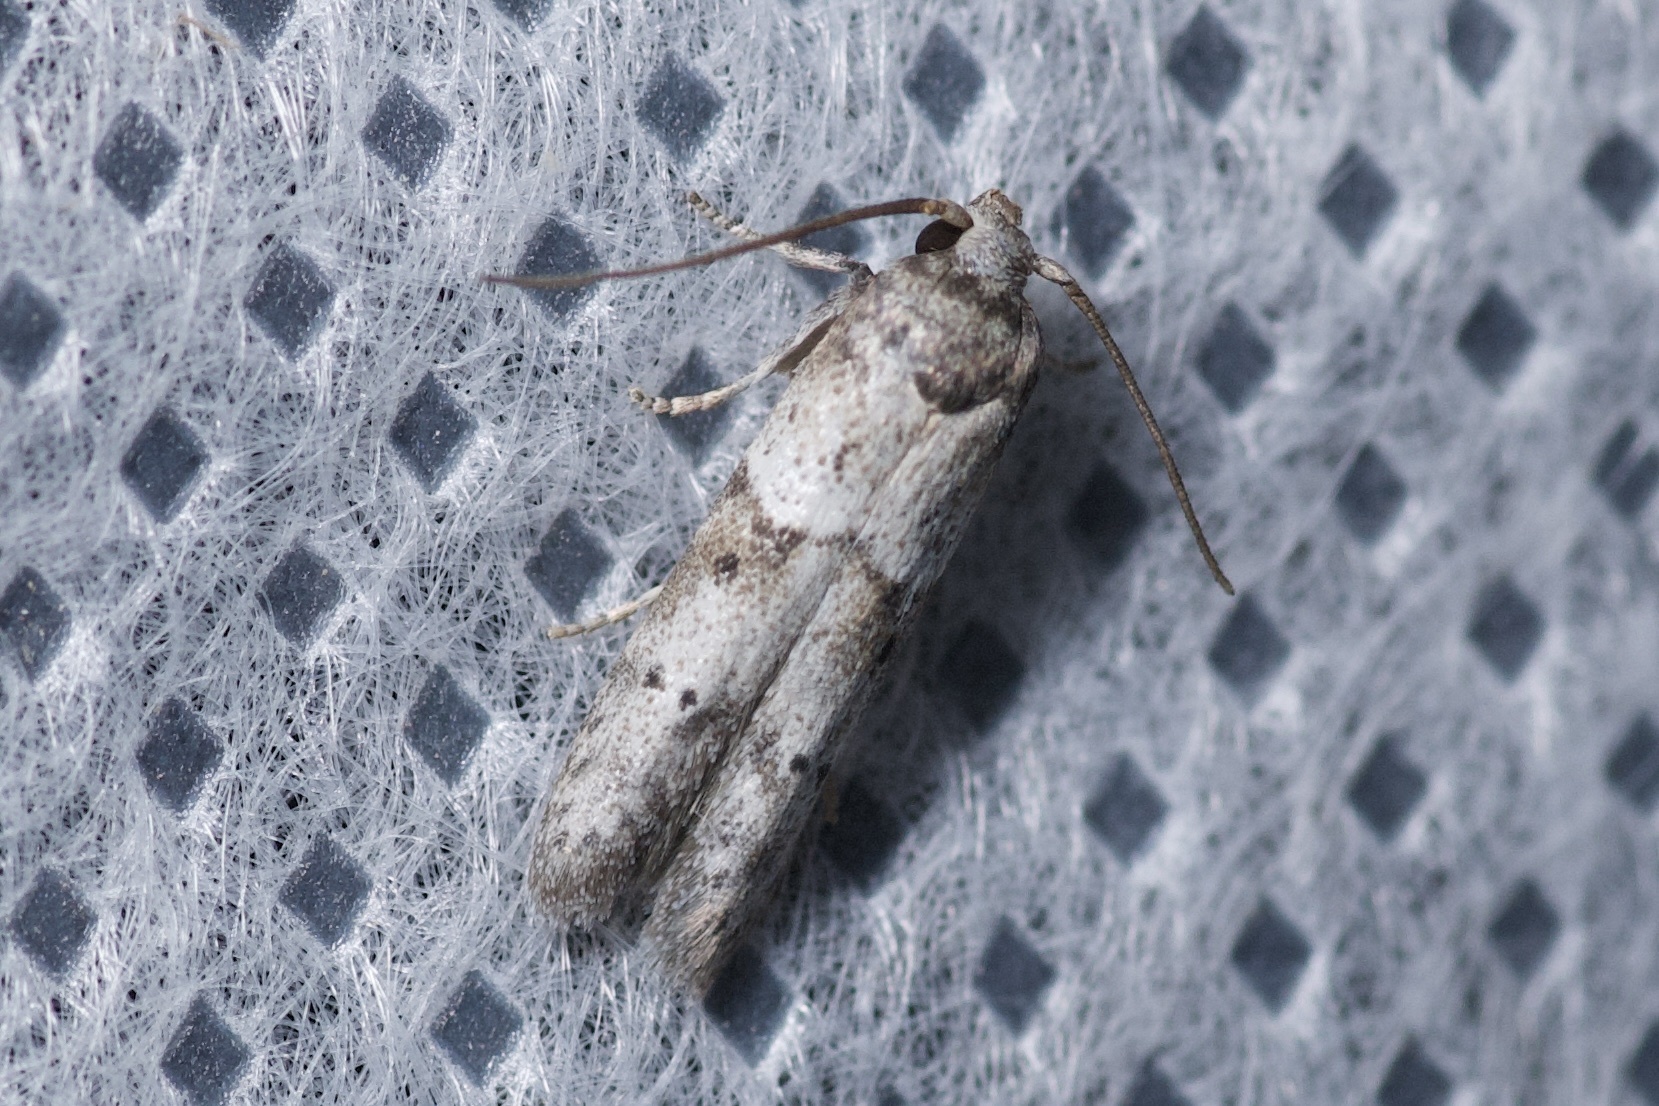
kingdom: Animalia
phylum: Arthropoda
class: Insecta
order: Lepidoptera
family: Blastobasidae
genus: Blastobasis
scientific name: Blastobasis glandulella
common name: Acorn moth
